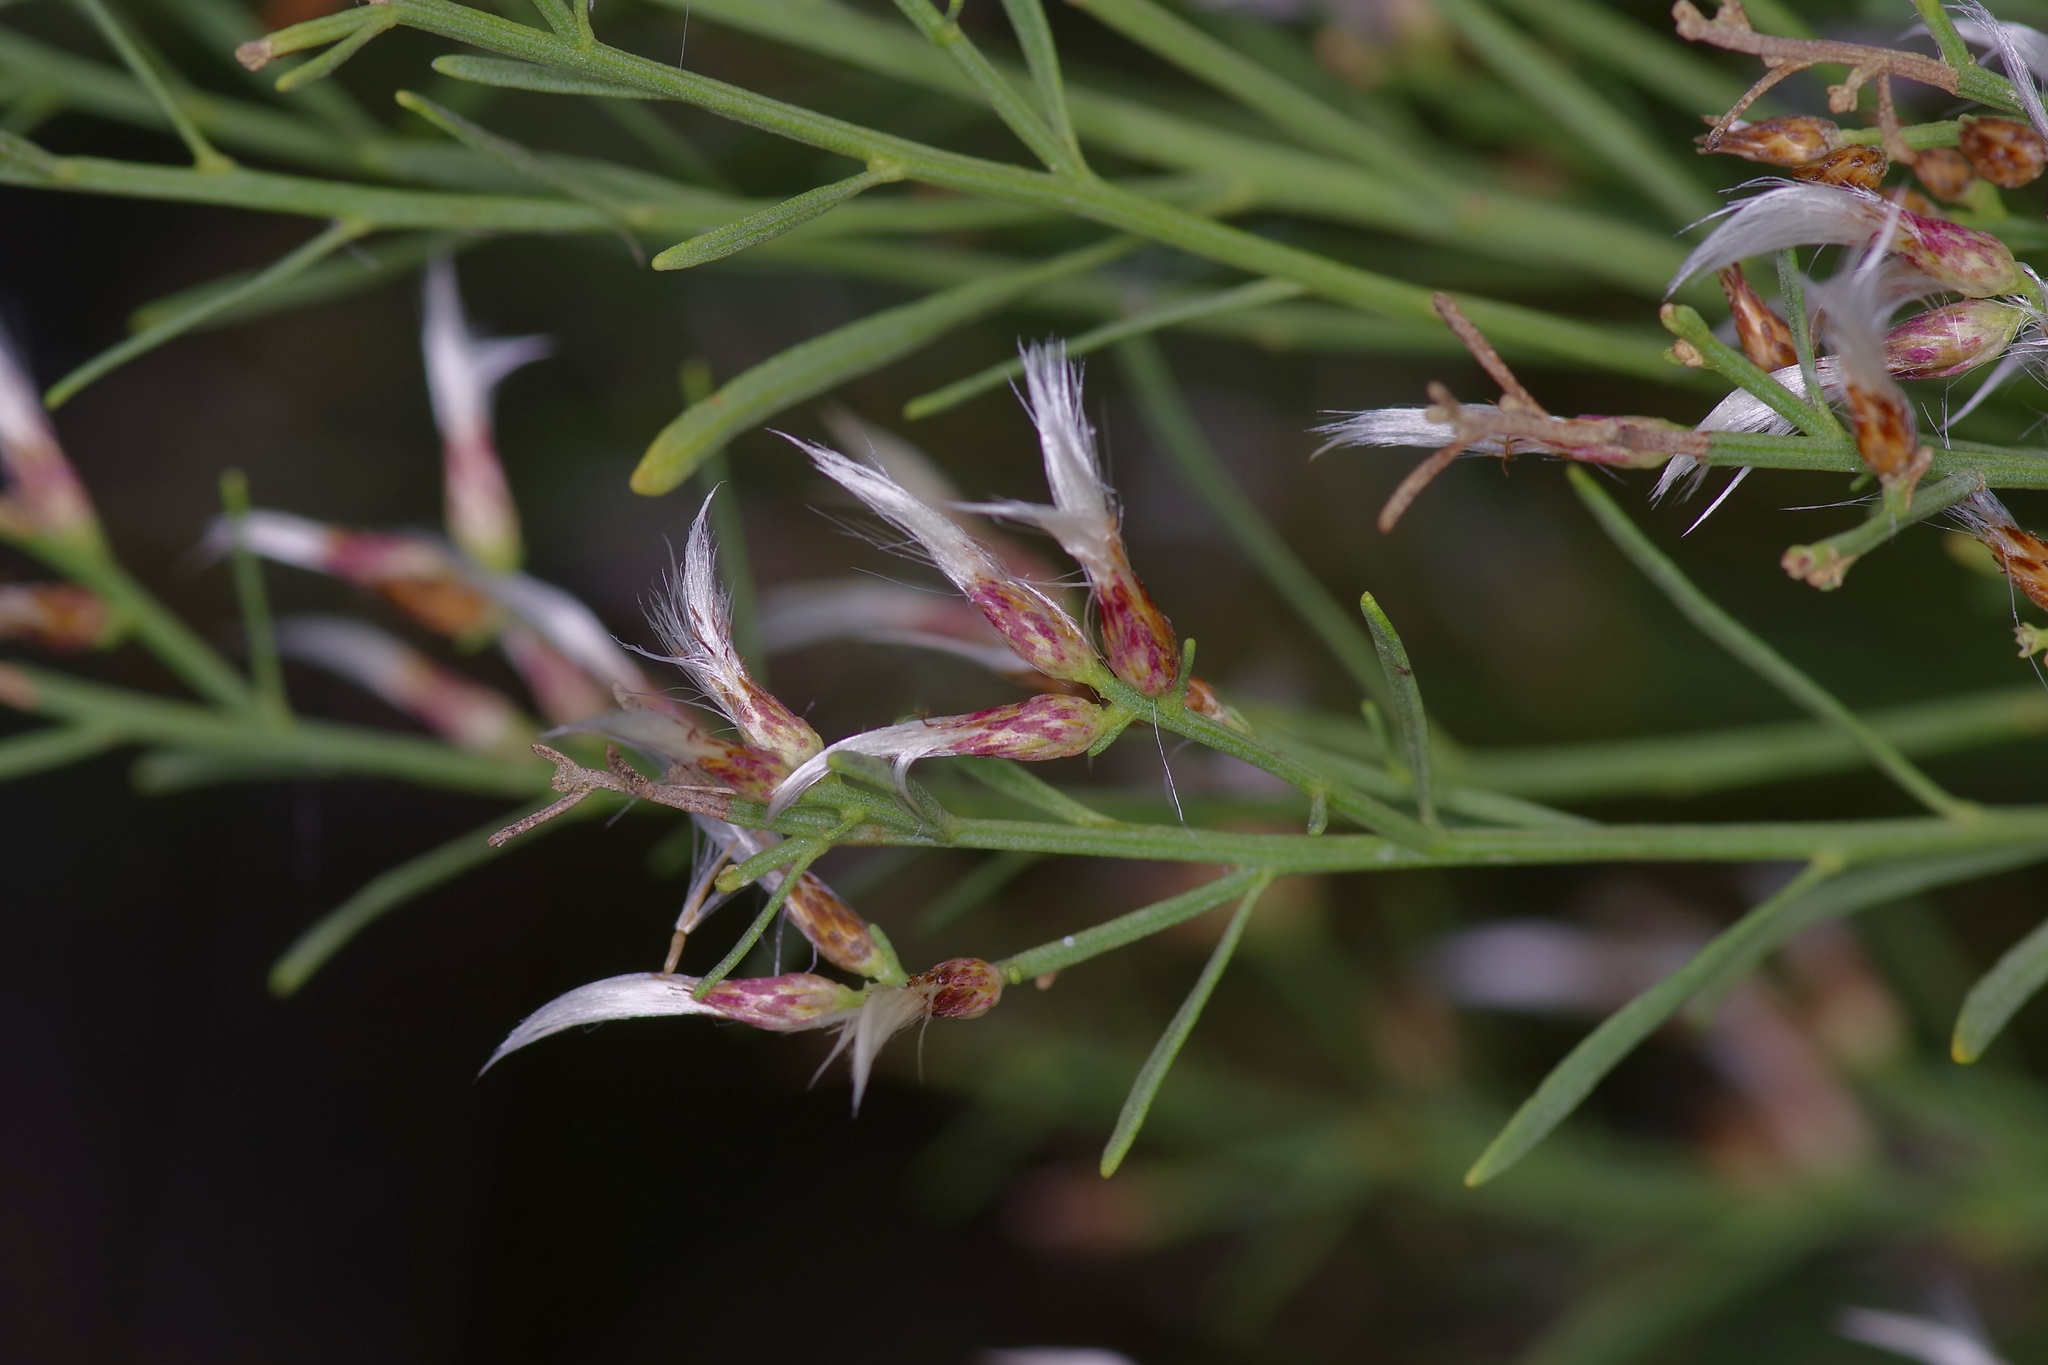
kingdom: Plantae
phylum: Tracheophyta
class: Magnoliopsida
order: Asterales
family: Asteraceae
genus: Baccharis
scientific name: Baccharis neglecta
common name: Roosevelt-weed
